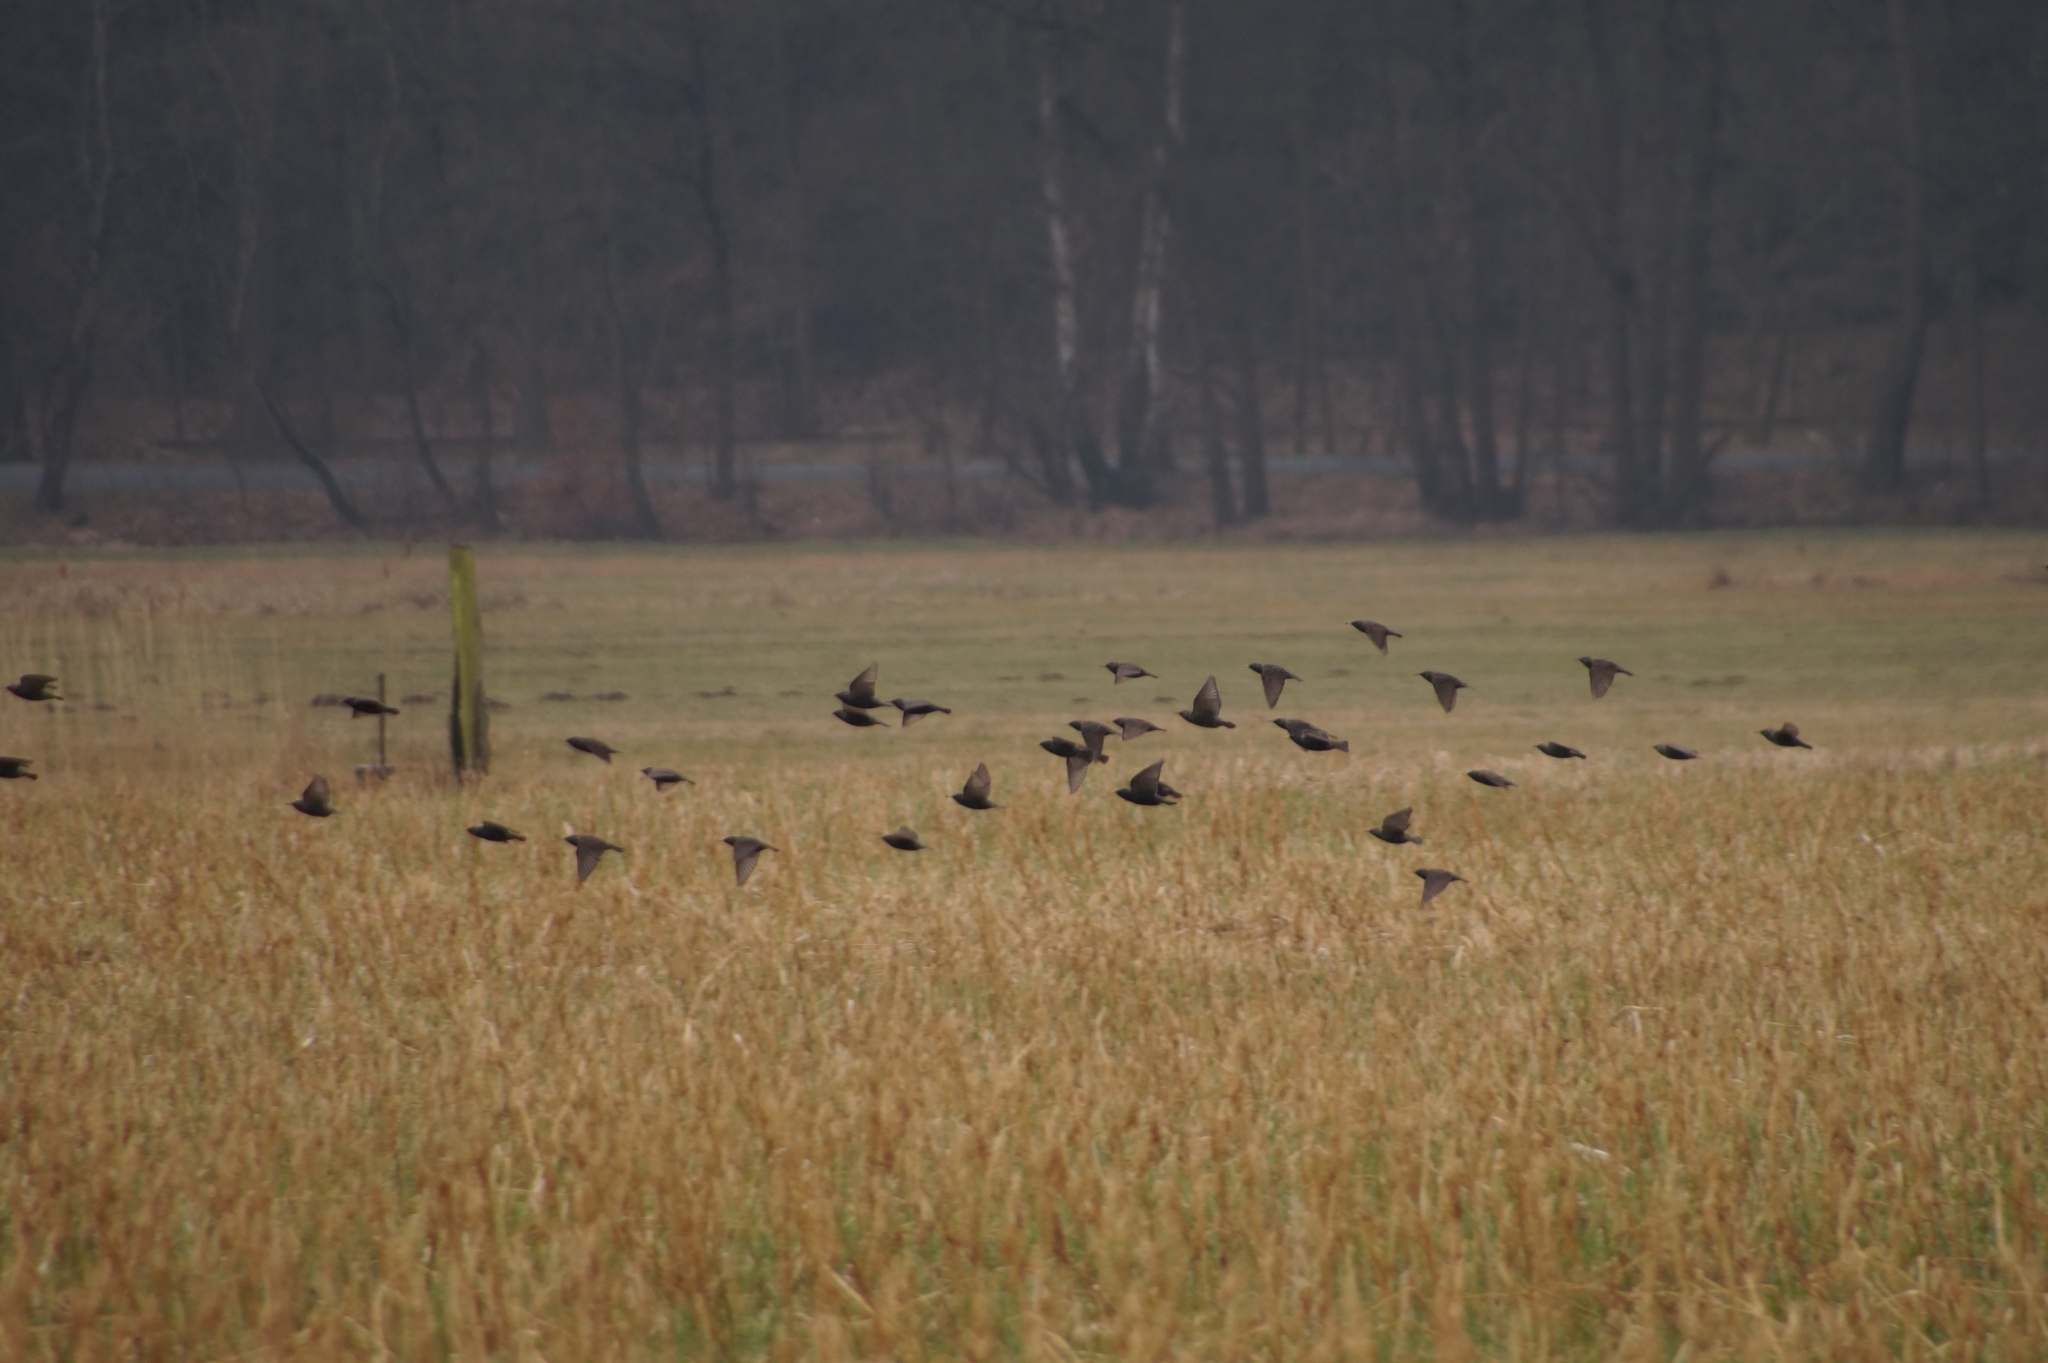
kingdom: Animalia
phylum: Chordata
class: Aves
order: Passeriformes
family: Sturnidae
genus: Sturnus
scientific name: Sturnus vulgaris
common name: Common starling
